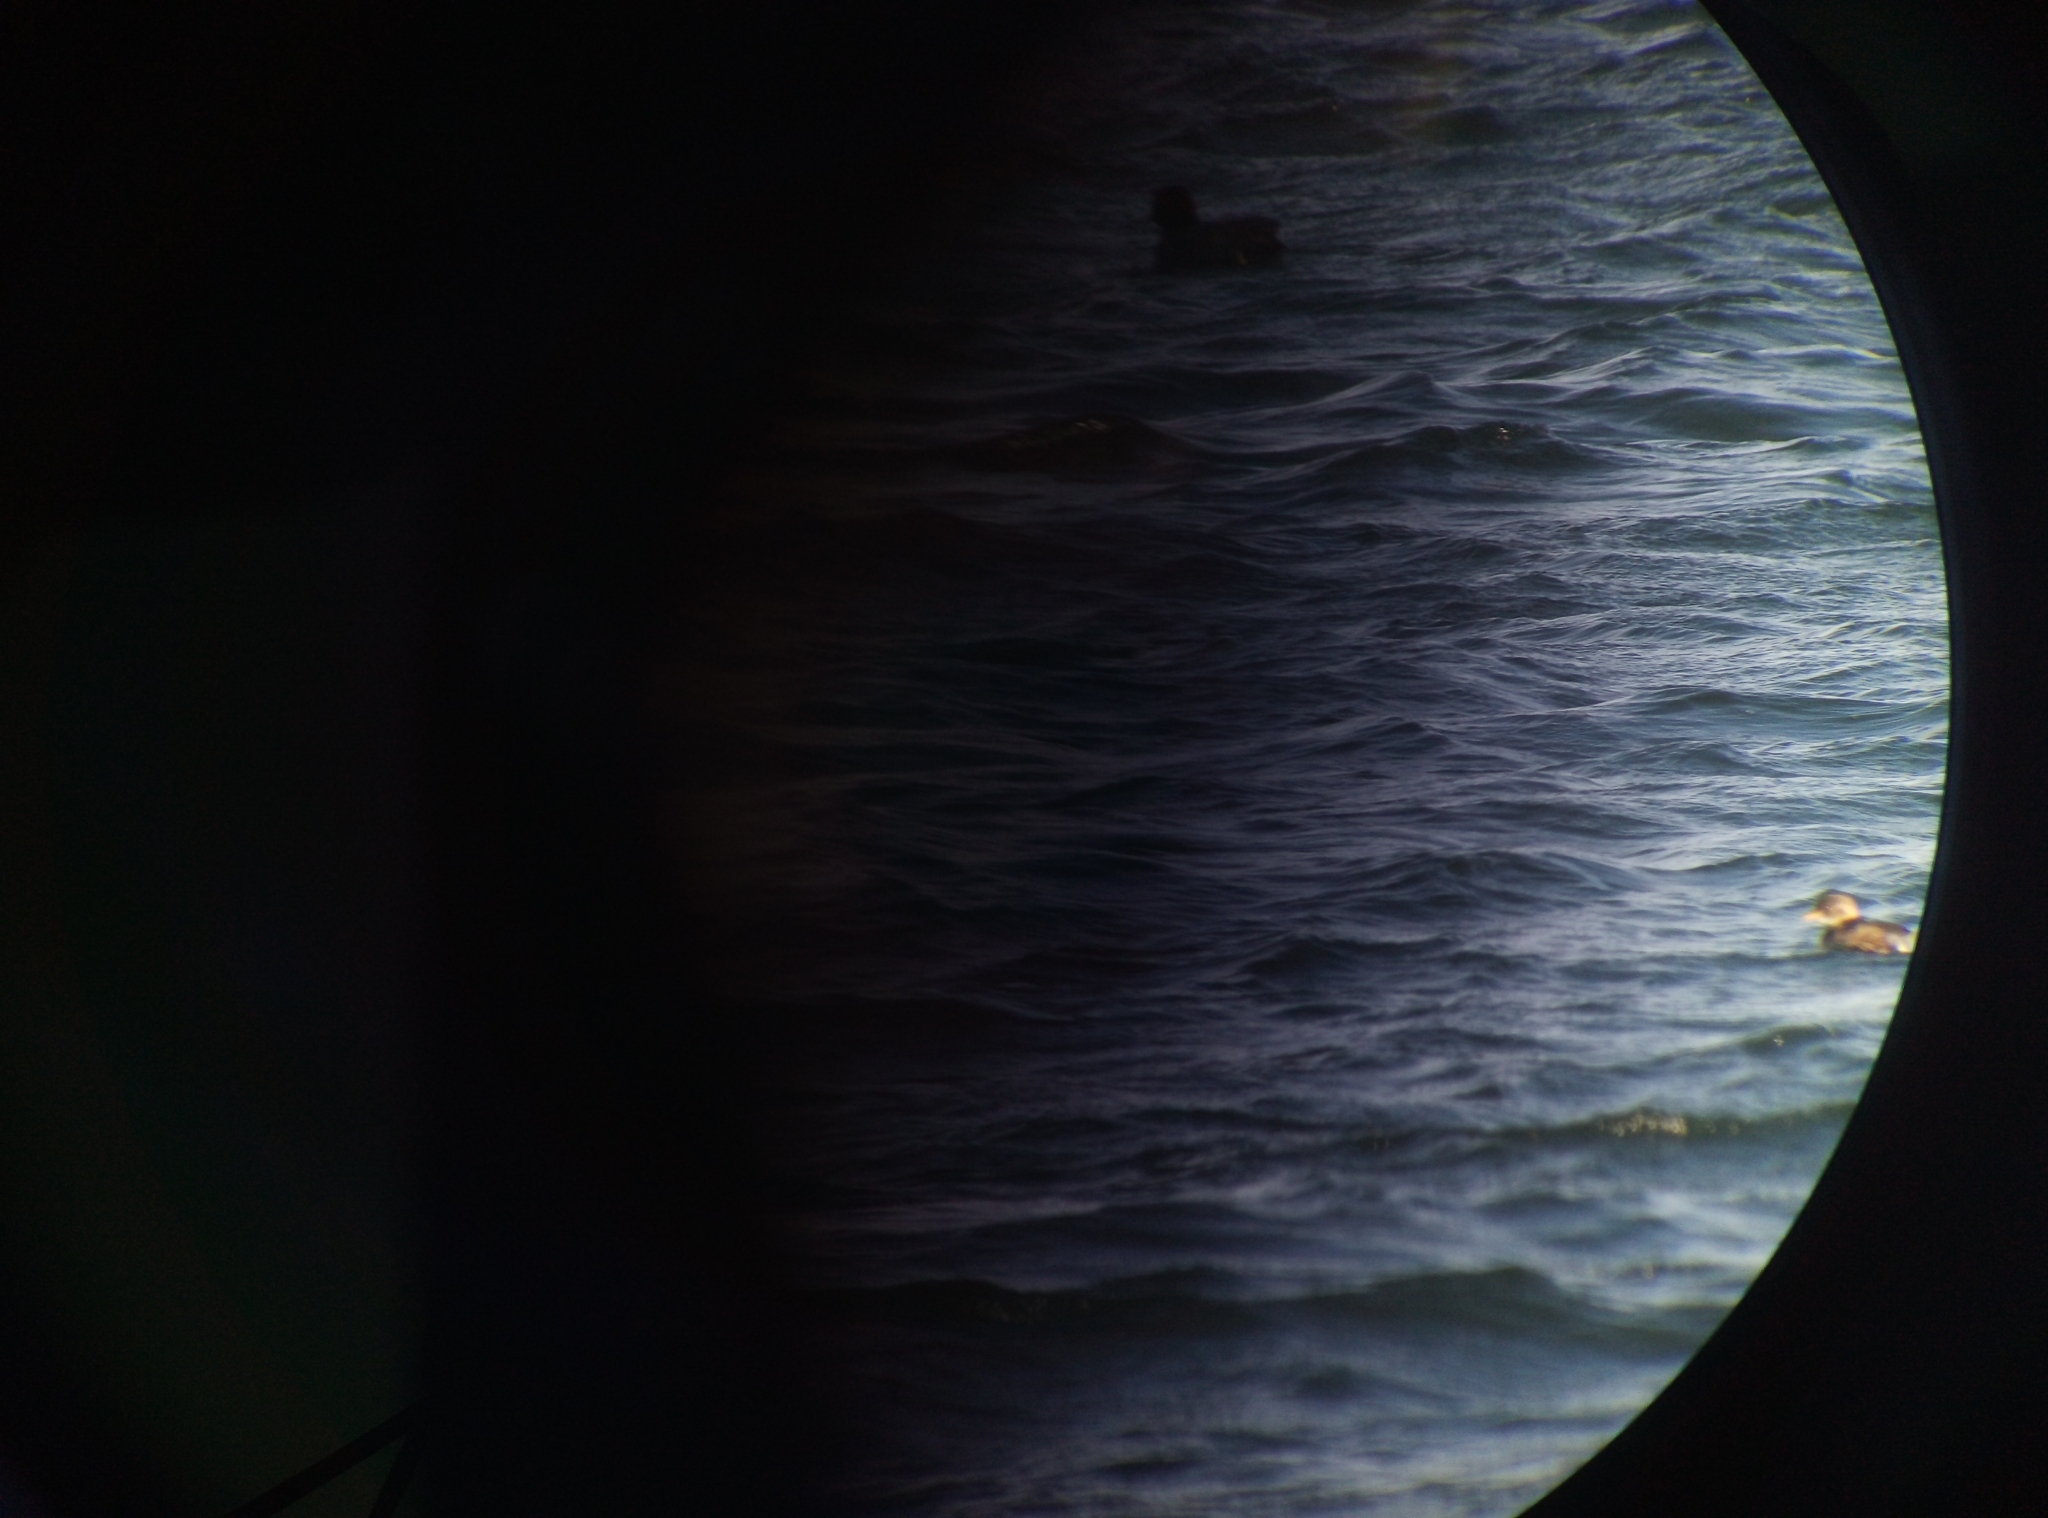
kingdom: Animalia
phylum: Chordata
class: Aves
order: Podicipediformes
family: Podicipedidae
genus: Tachybaptus
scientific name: Tachybaptus ruficollis
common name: Little grebe
